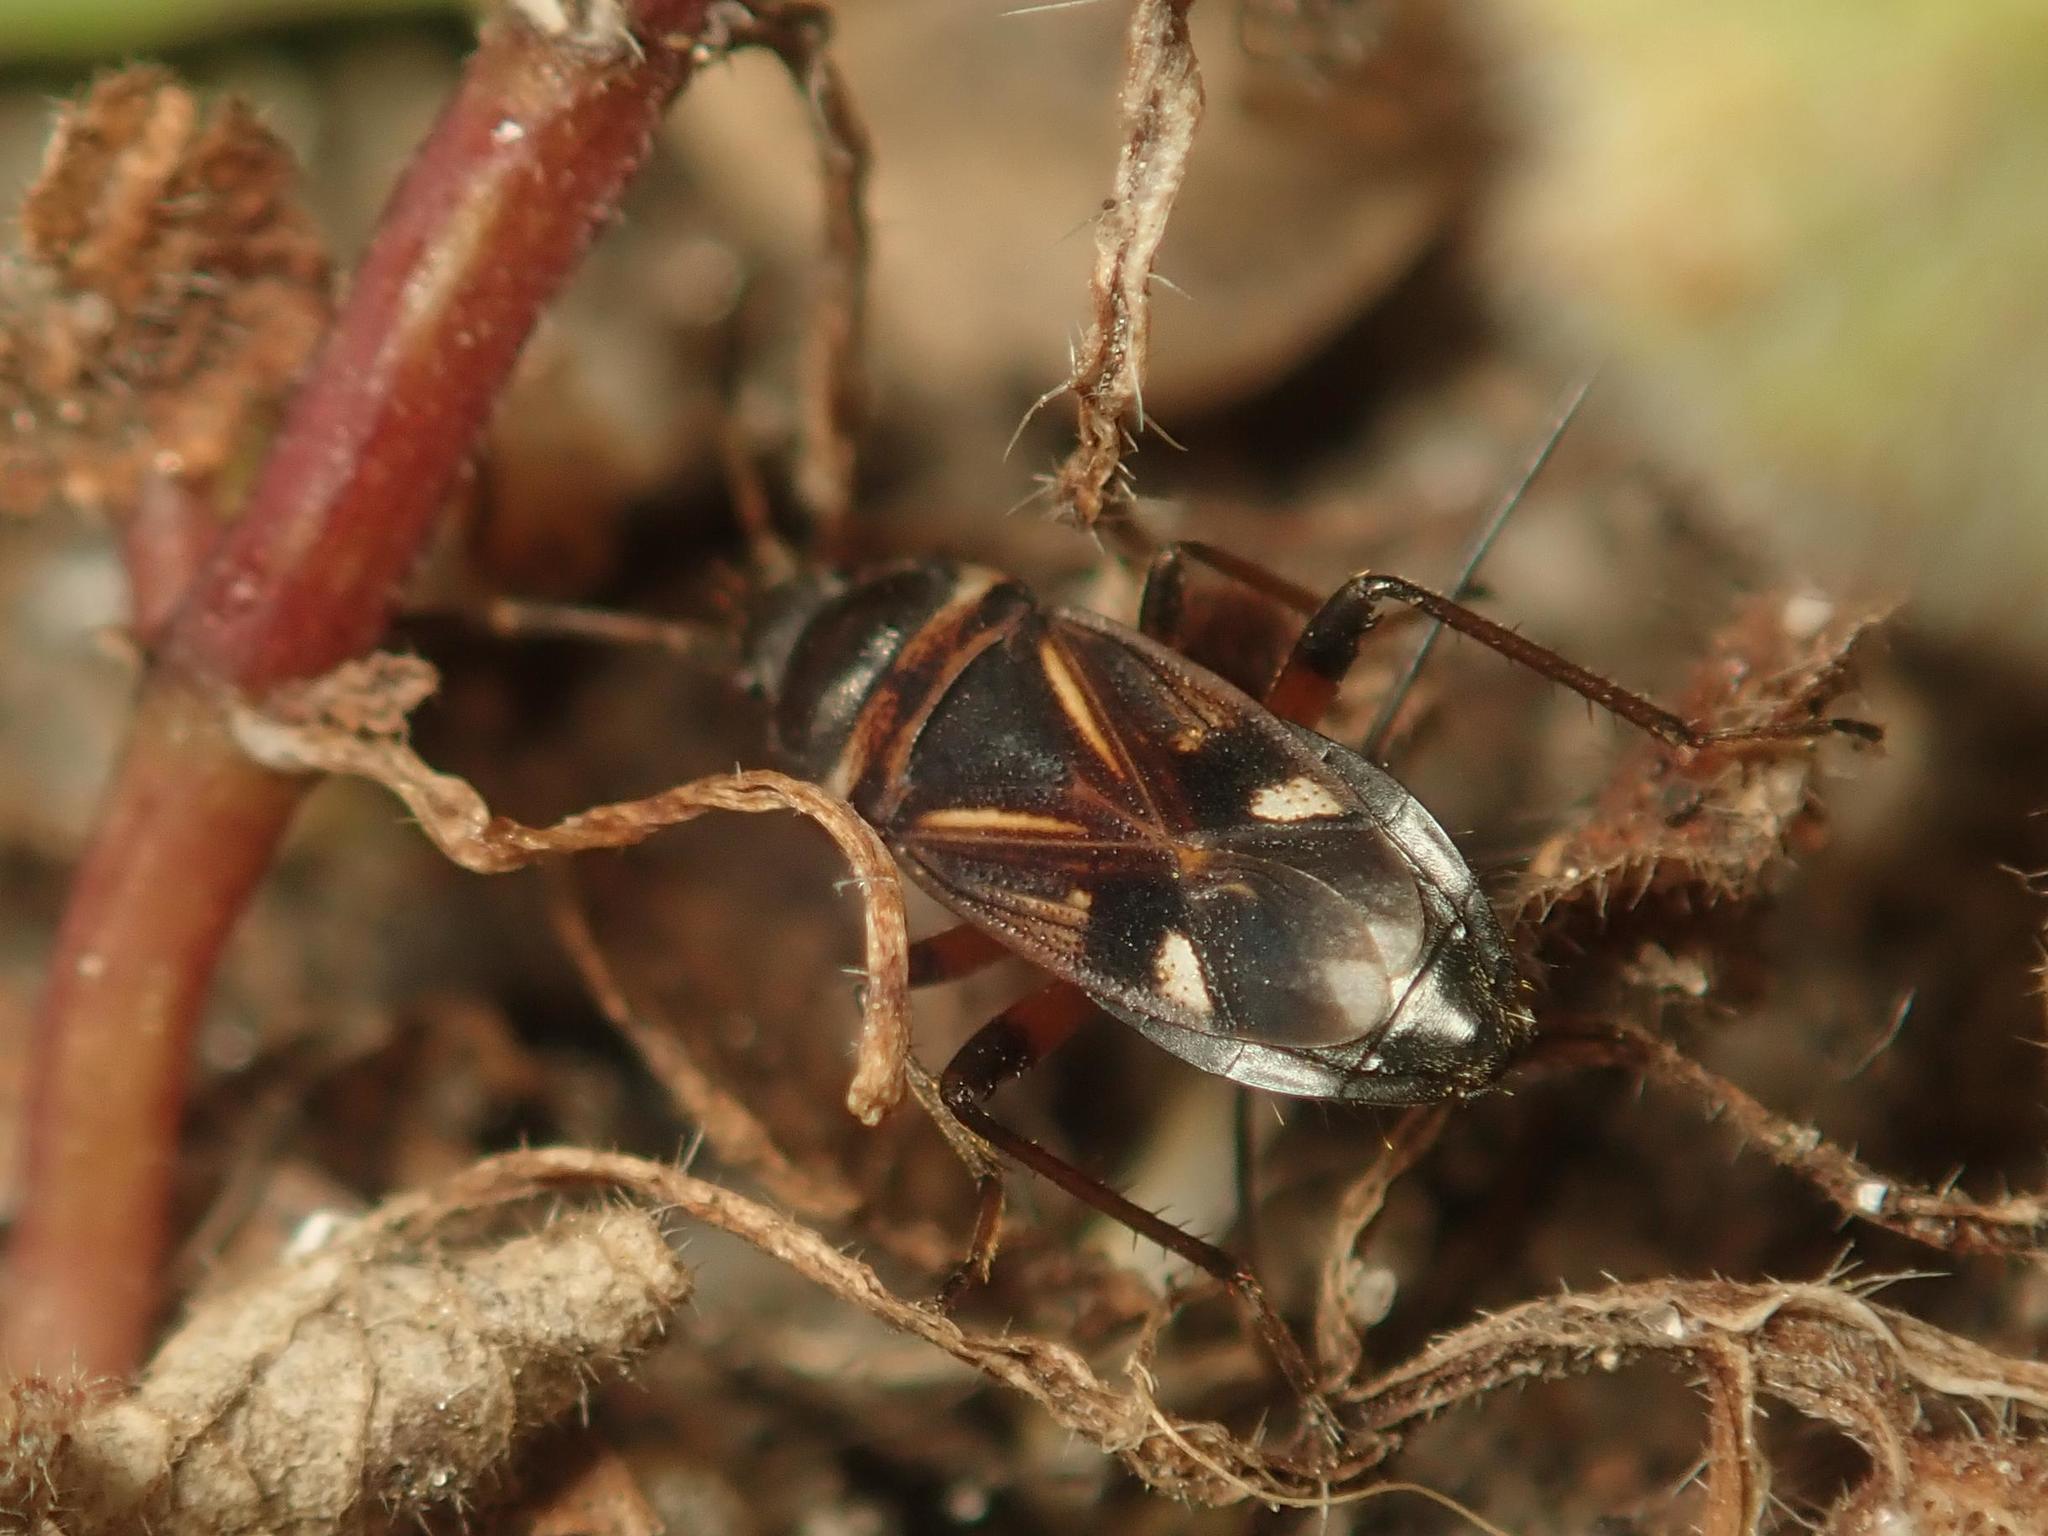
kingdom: Animalia
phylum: Arthropoda
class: Insecta
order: Hemiptera
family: Rhyparochromidae
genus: Raglius
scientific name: Raglius alboacuminatus
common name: Dirt-colored seed bug
